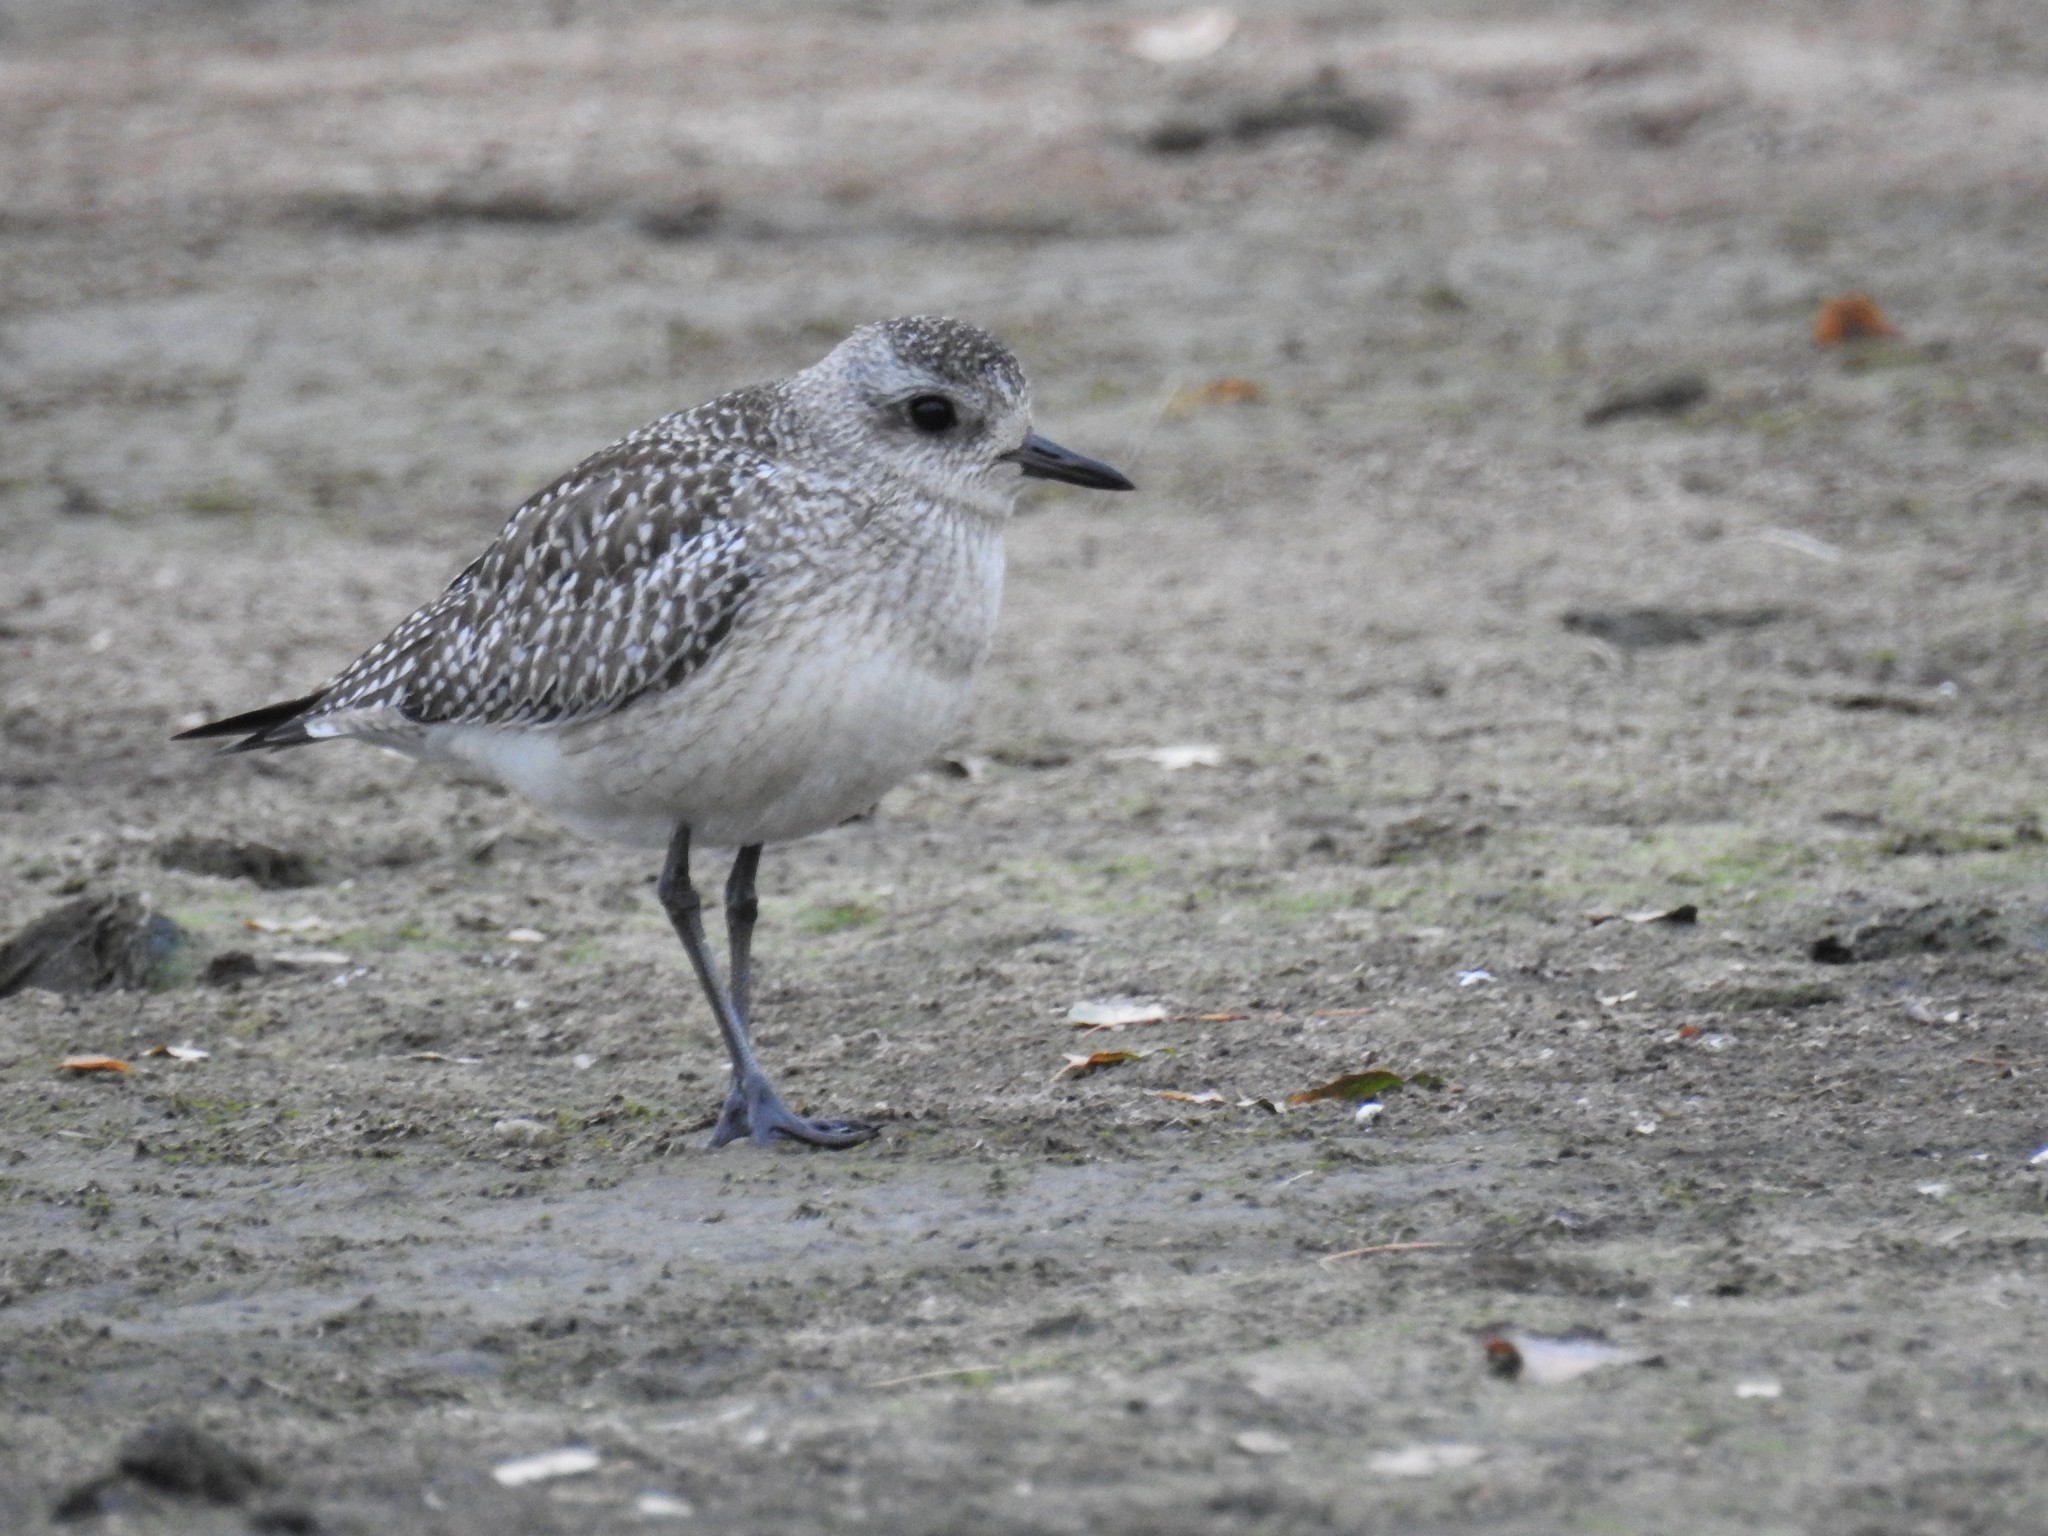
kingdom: Animalia
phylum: Chordata
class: Aves
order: Charadriiformes
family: Charadriidae
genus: Pluvialis
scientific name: Pluvialis squatarola
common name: Grey plover
